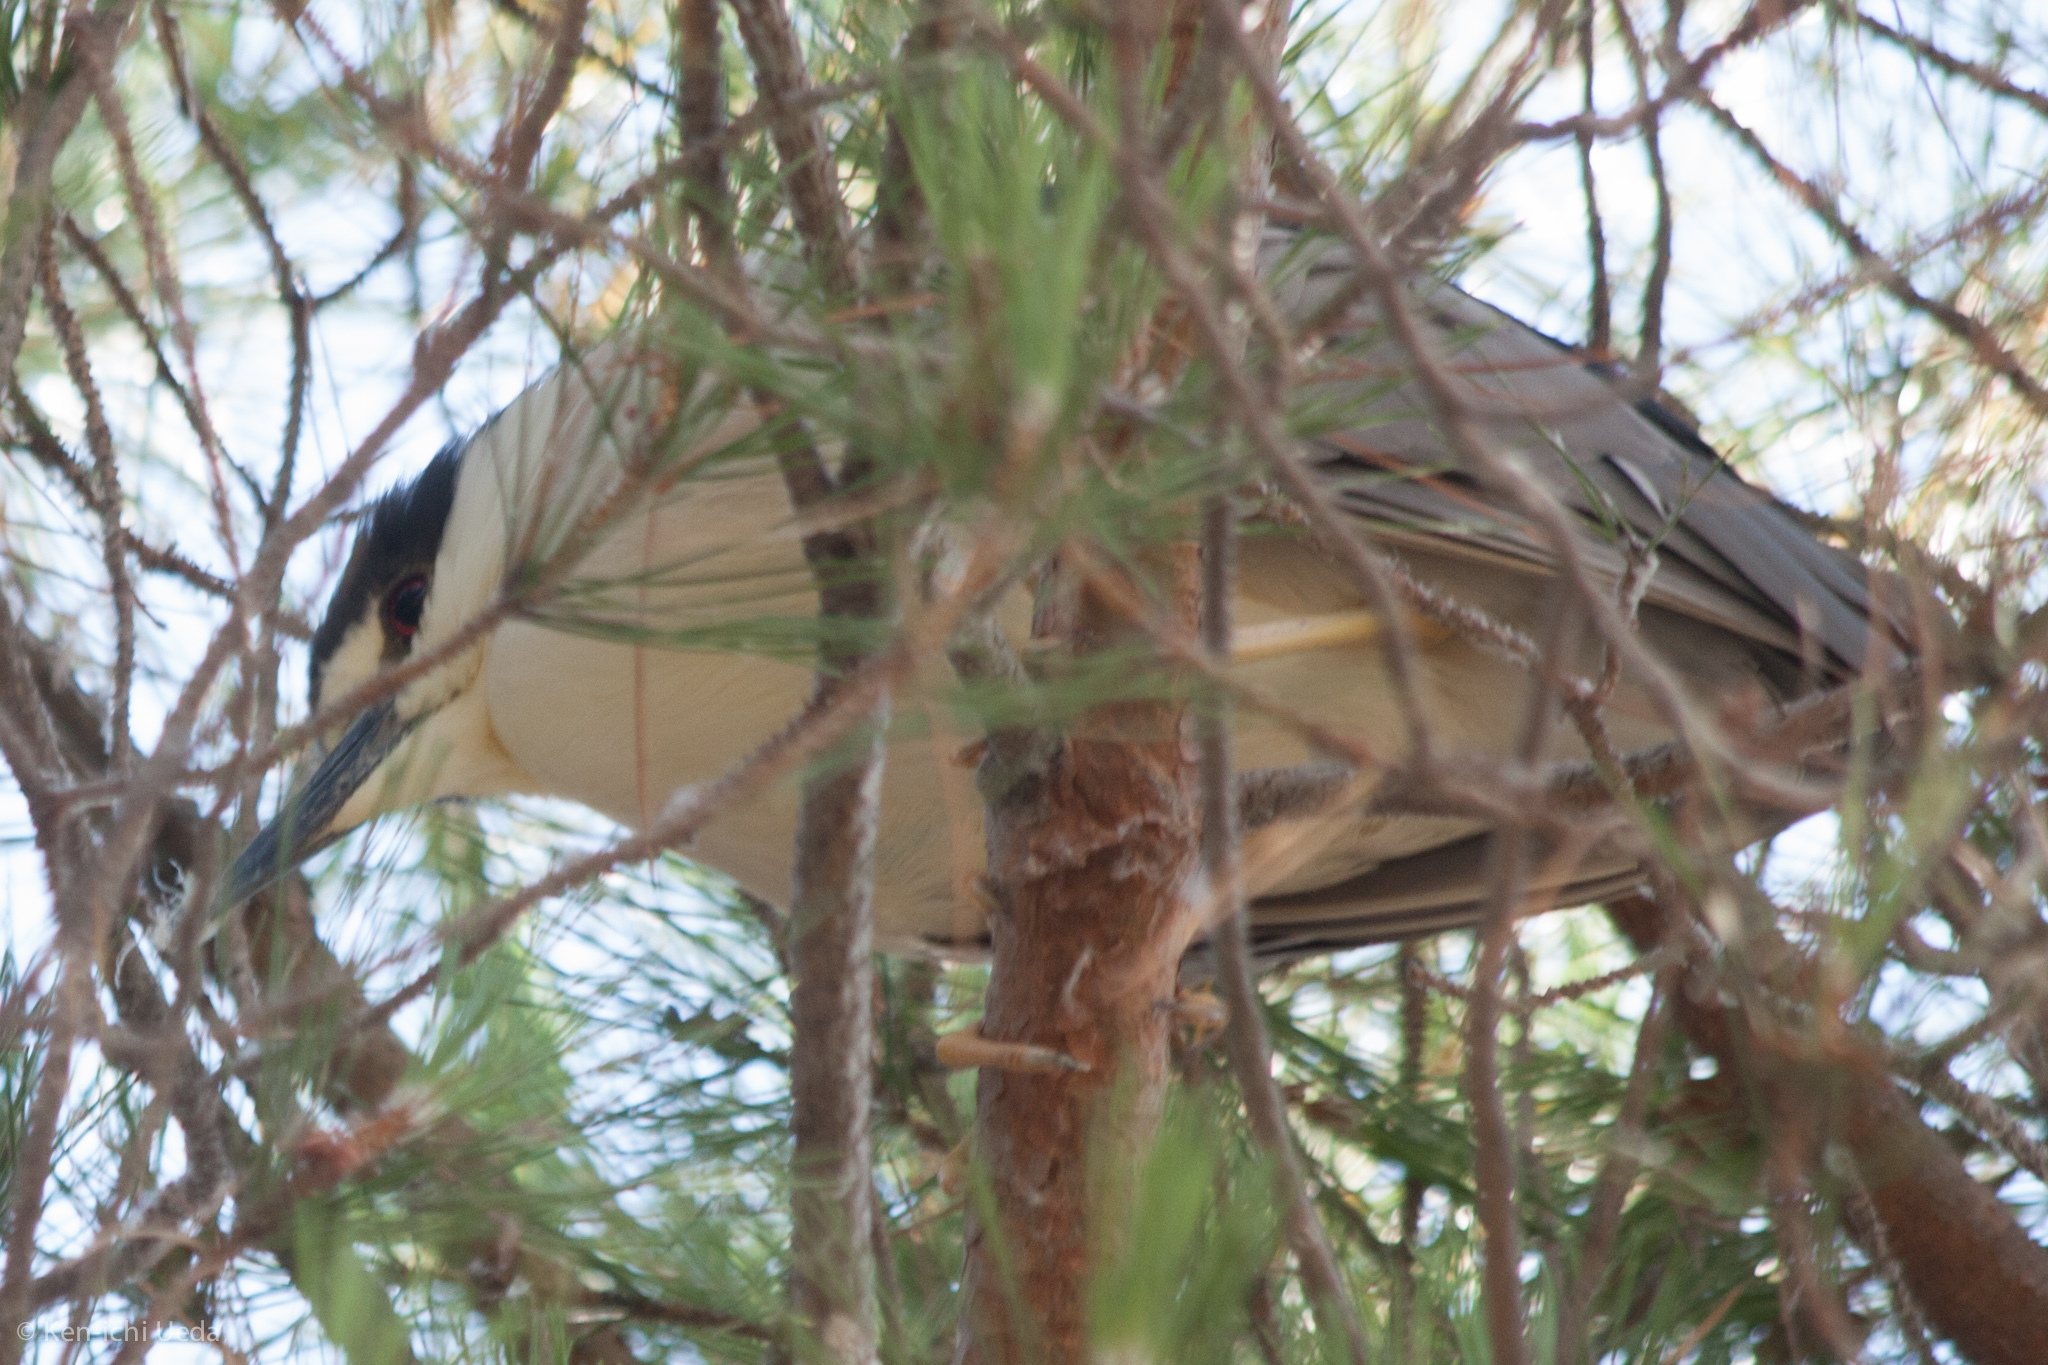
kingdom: Animalia
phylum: Chordata
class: Aves
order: Pelecaniformes
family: Ardeidae
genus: Nycticorax
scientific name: Nycticorax nycticorax
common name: Black-crowned night heron
